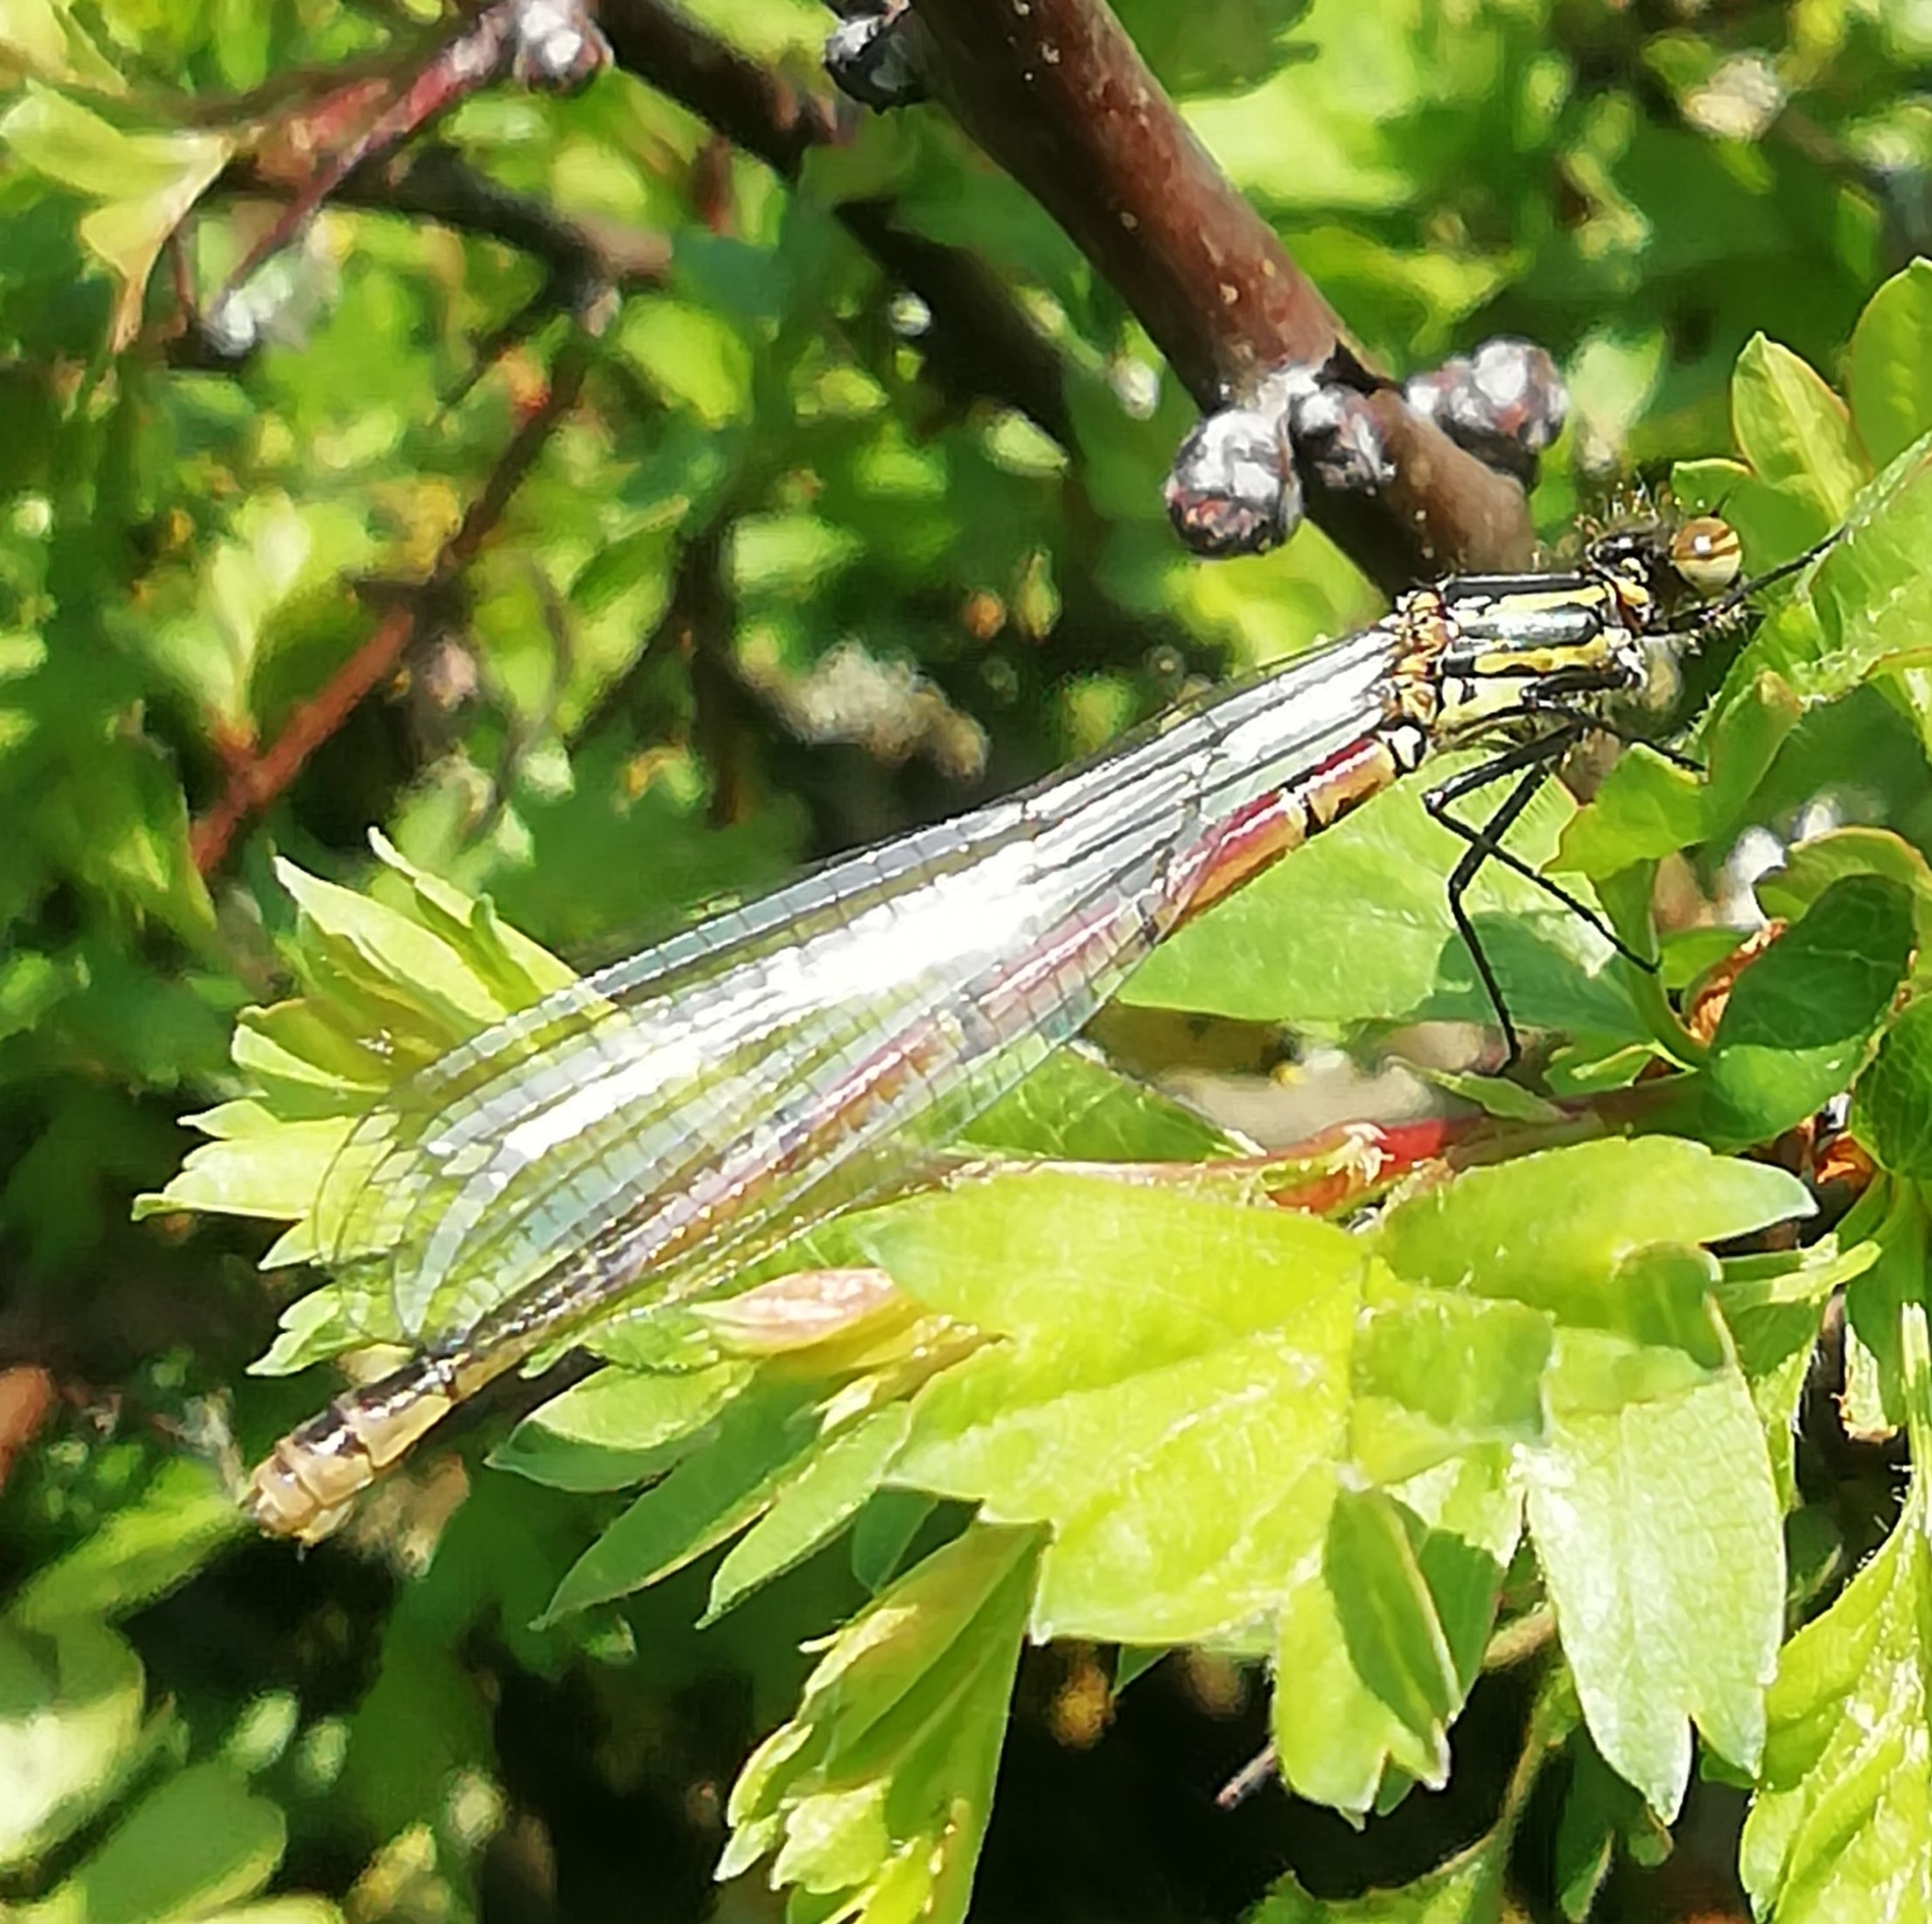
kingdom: Animalia
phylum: Arthropoda
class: Insecta
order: Odonata
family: Coenagrionidae
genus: Pyrrhosoma
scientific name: Pyrrhosoma nymphula
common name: Large red damsel
